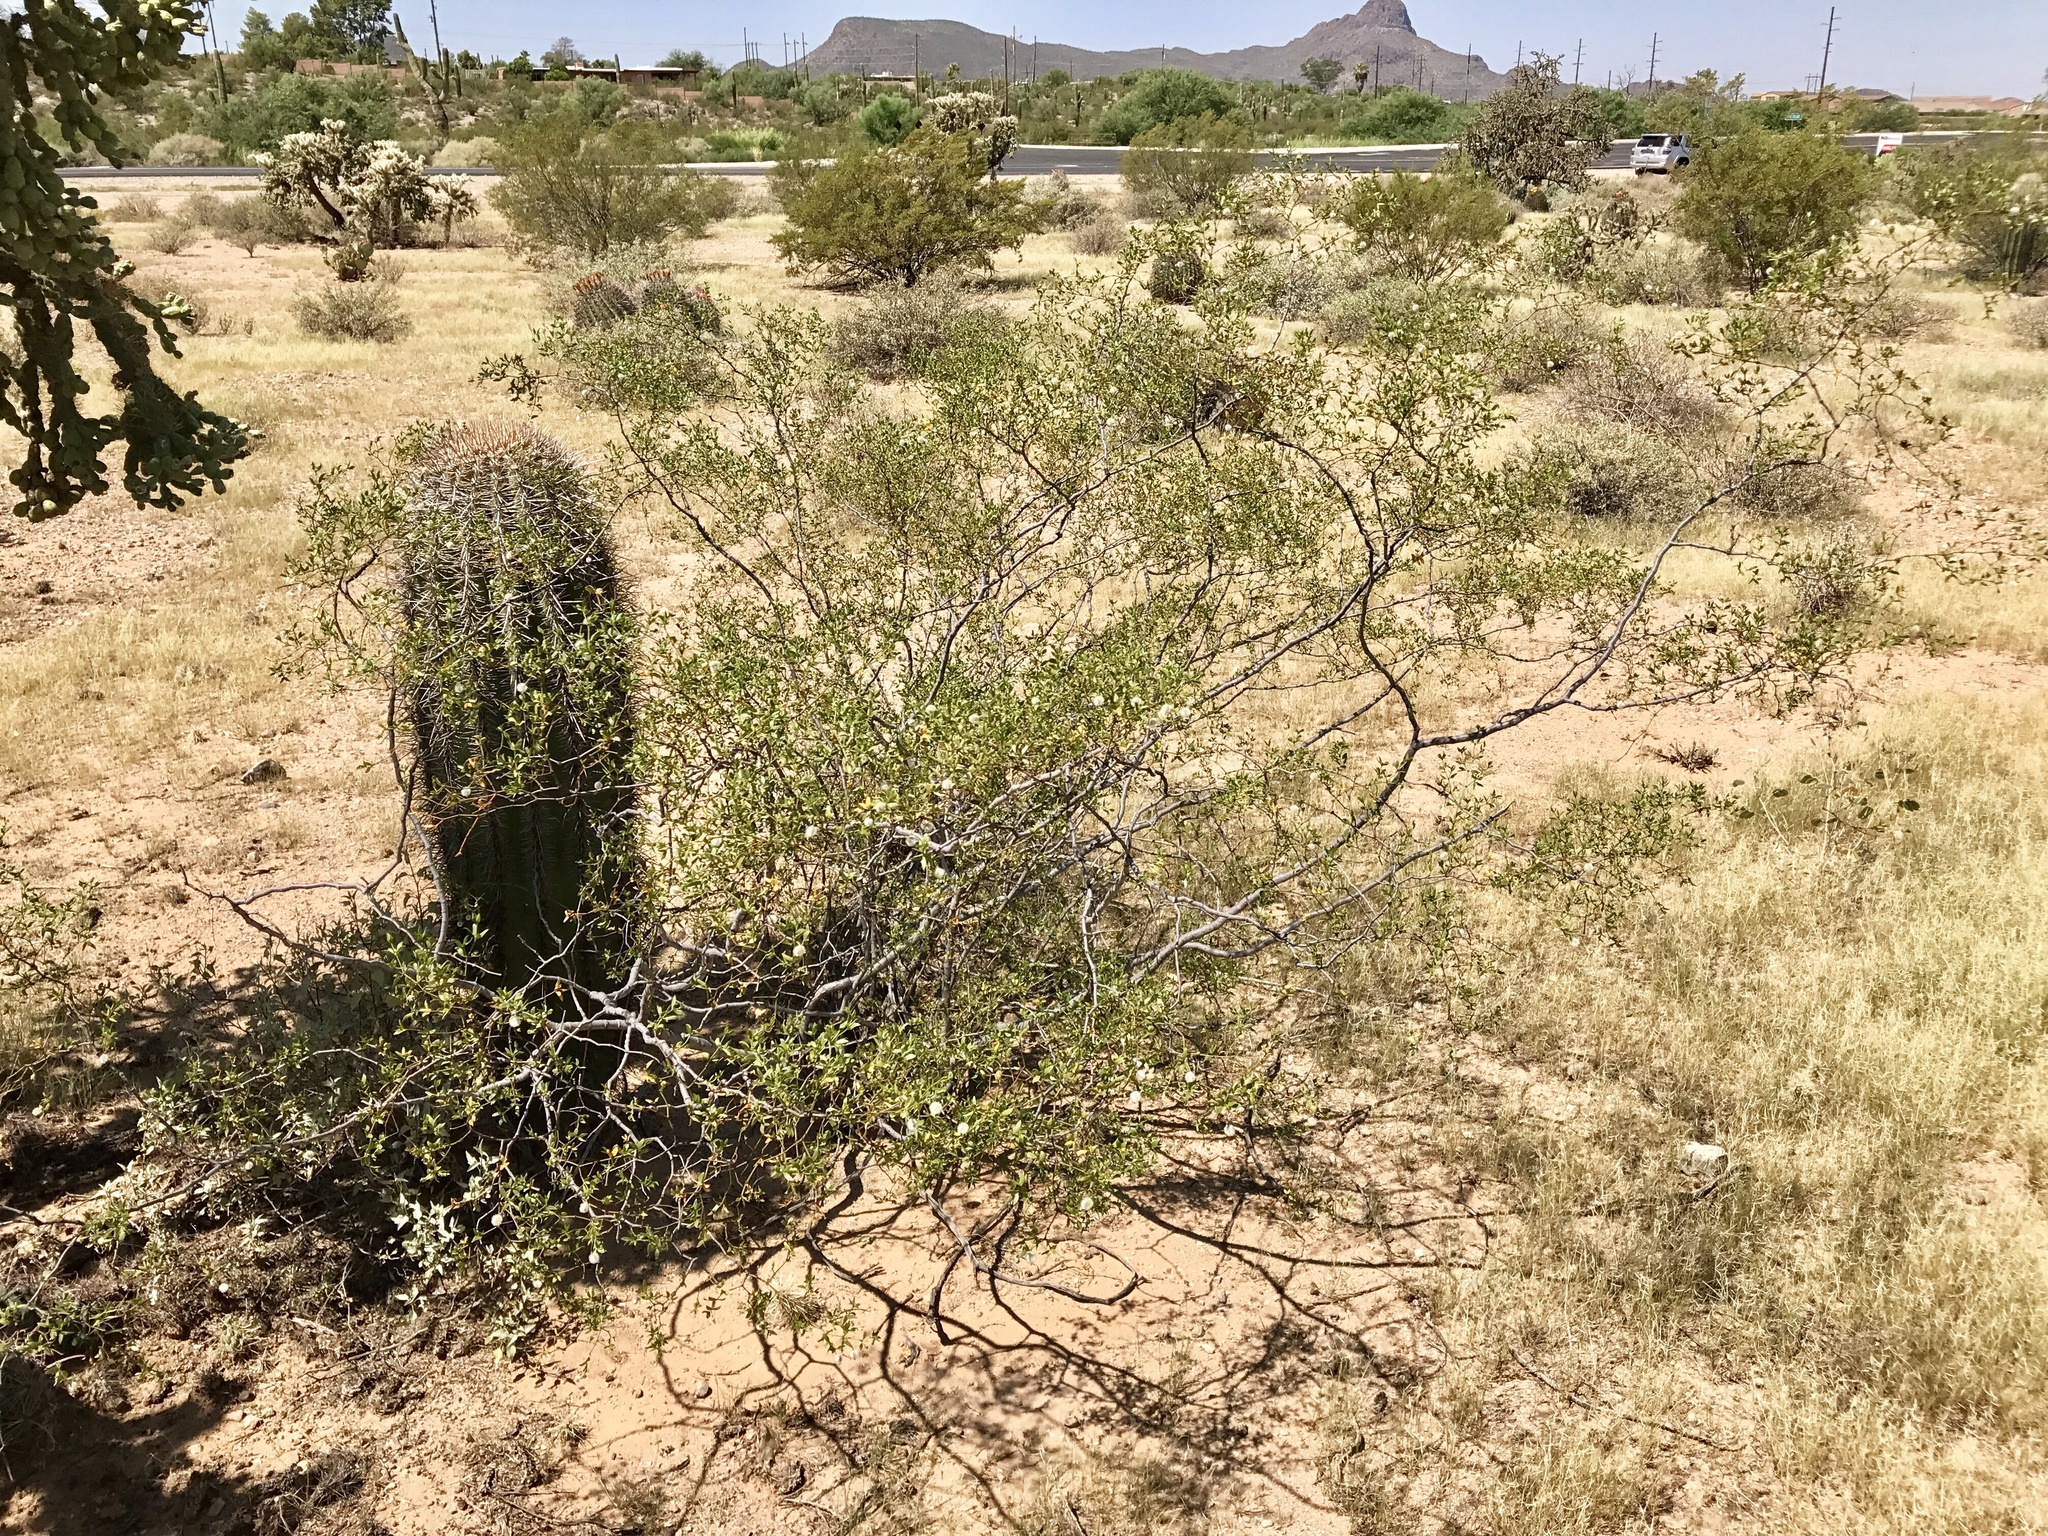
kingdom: Plantae
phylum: Tracheophyta
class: Magnoliopsida
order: Zygophyllales
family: Zygophyllaceae
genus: Larrea
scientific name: Larrea tridentata
